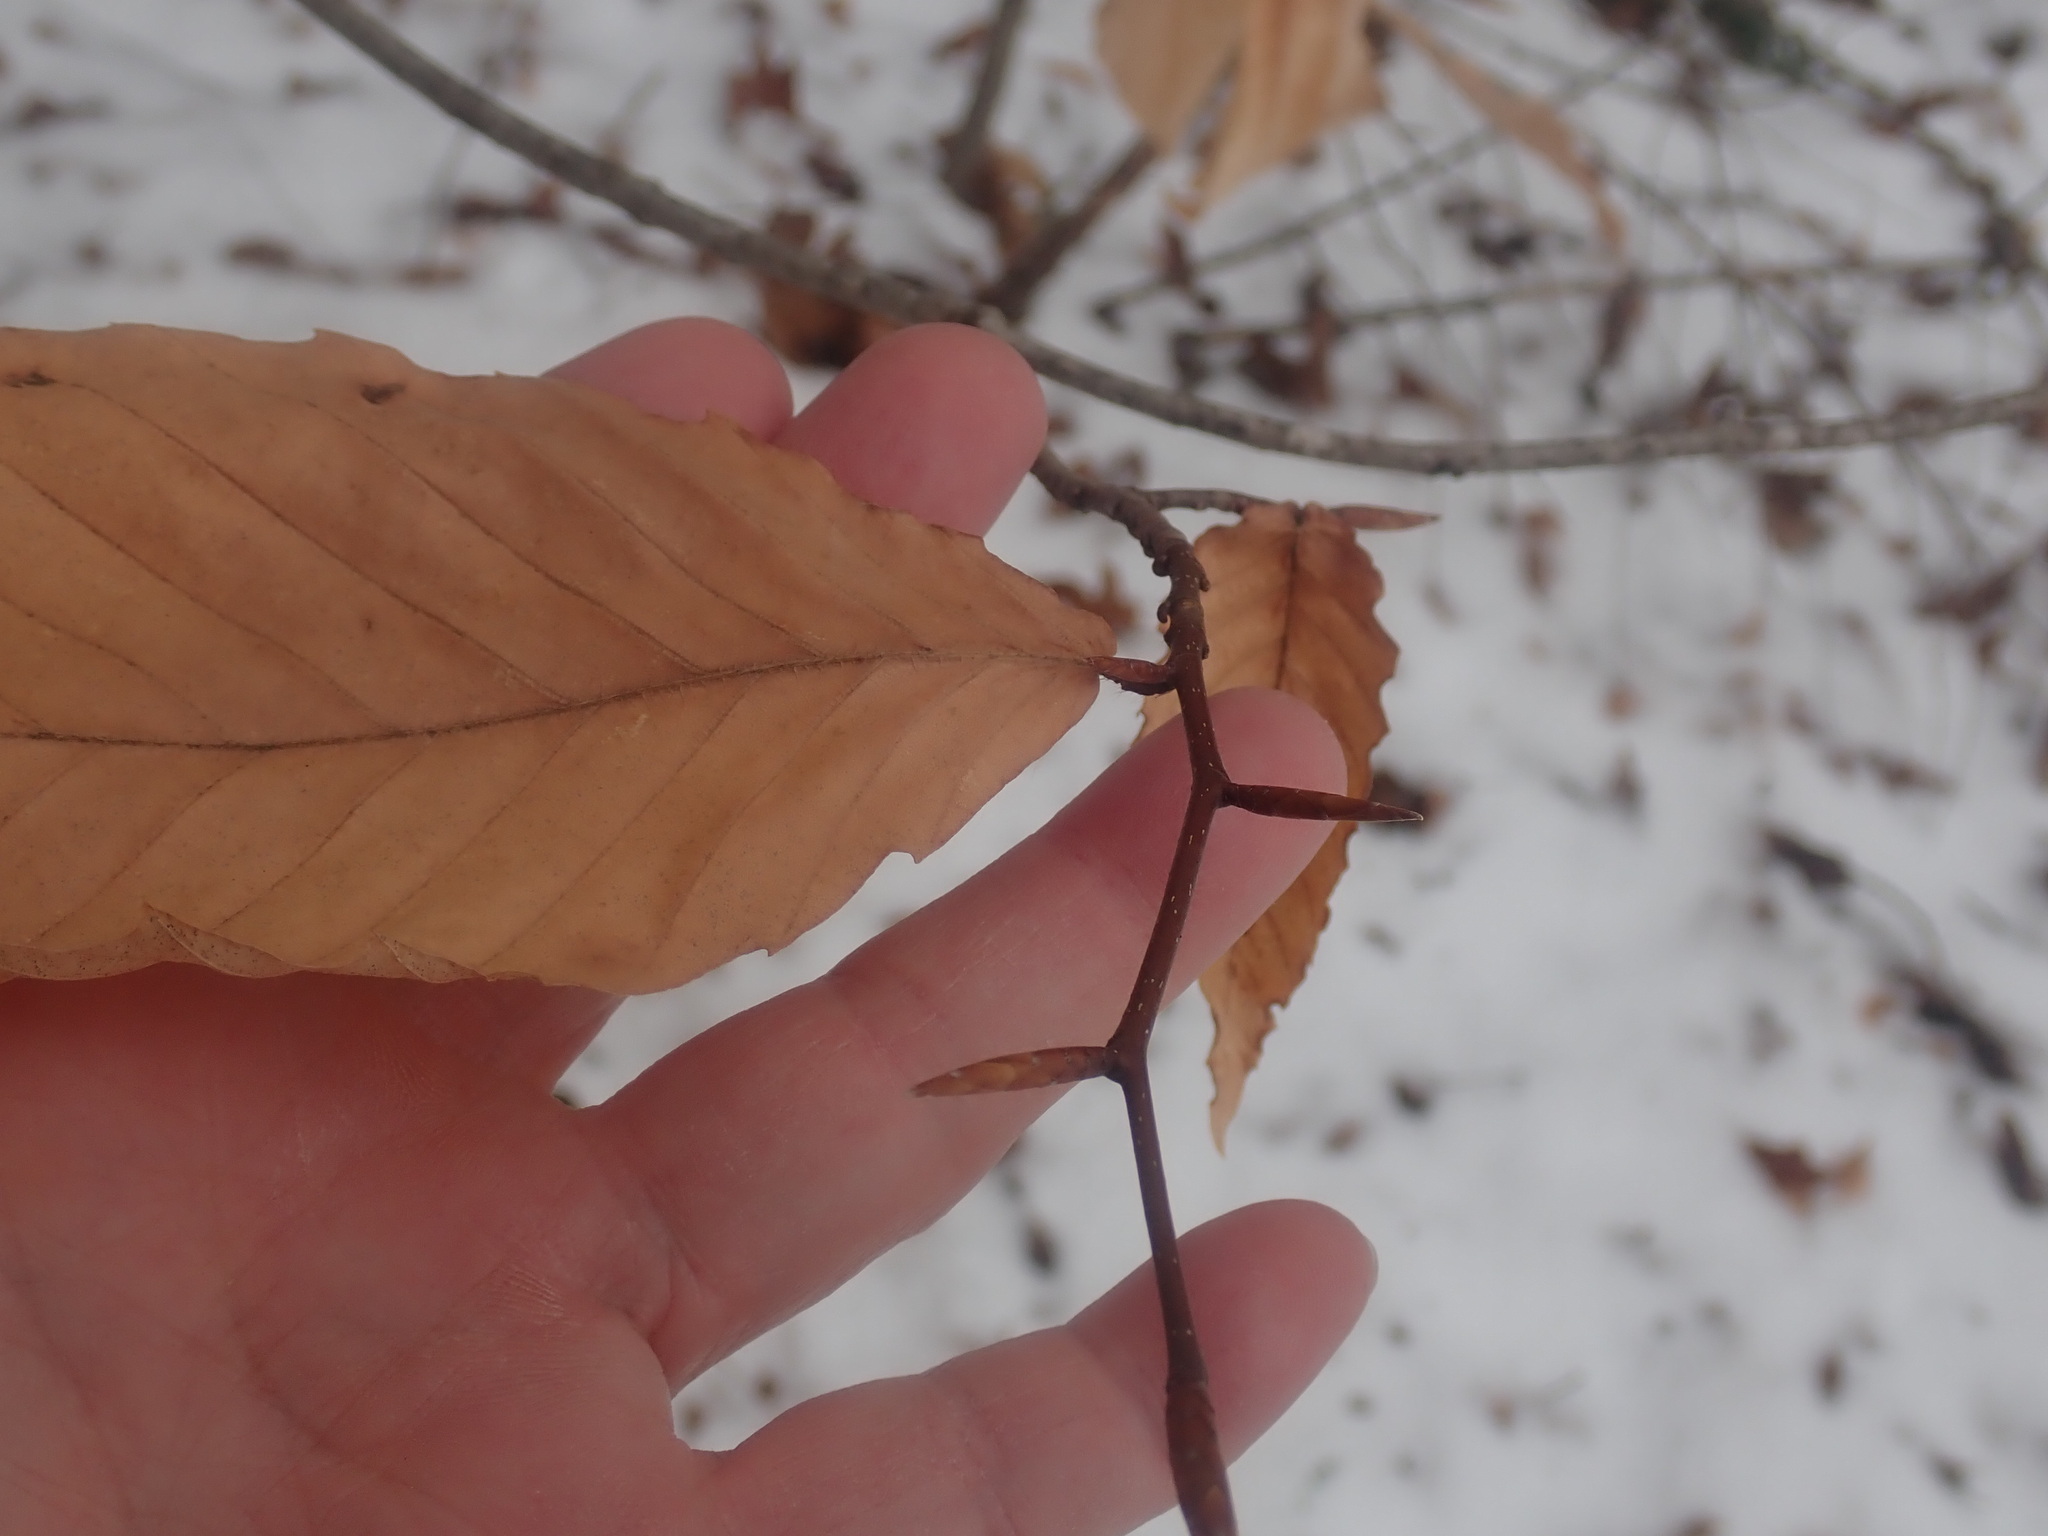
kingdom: Plantae
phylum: Tracheophyta
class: Magnoliopsida
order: Fagales
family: Fagaceae
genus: Fagus
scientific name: Fagus grandifolia
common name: American beech
